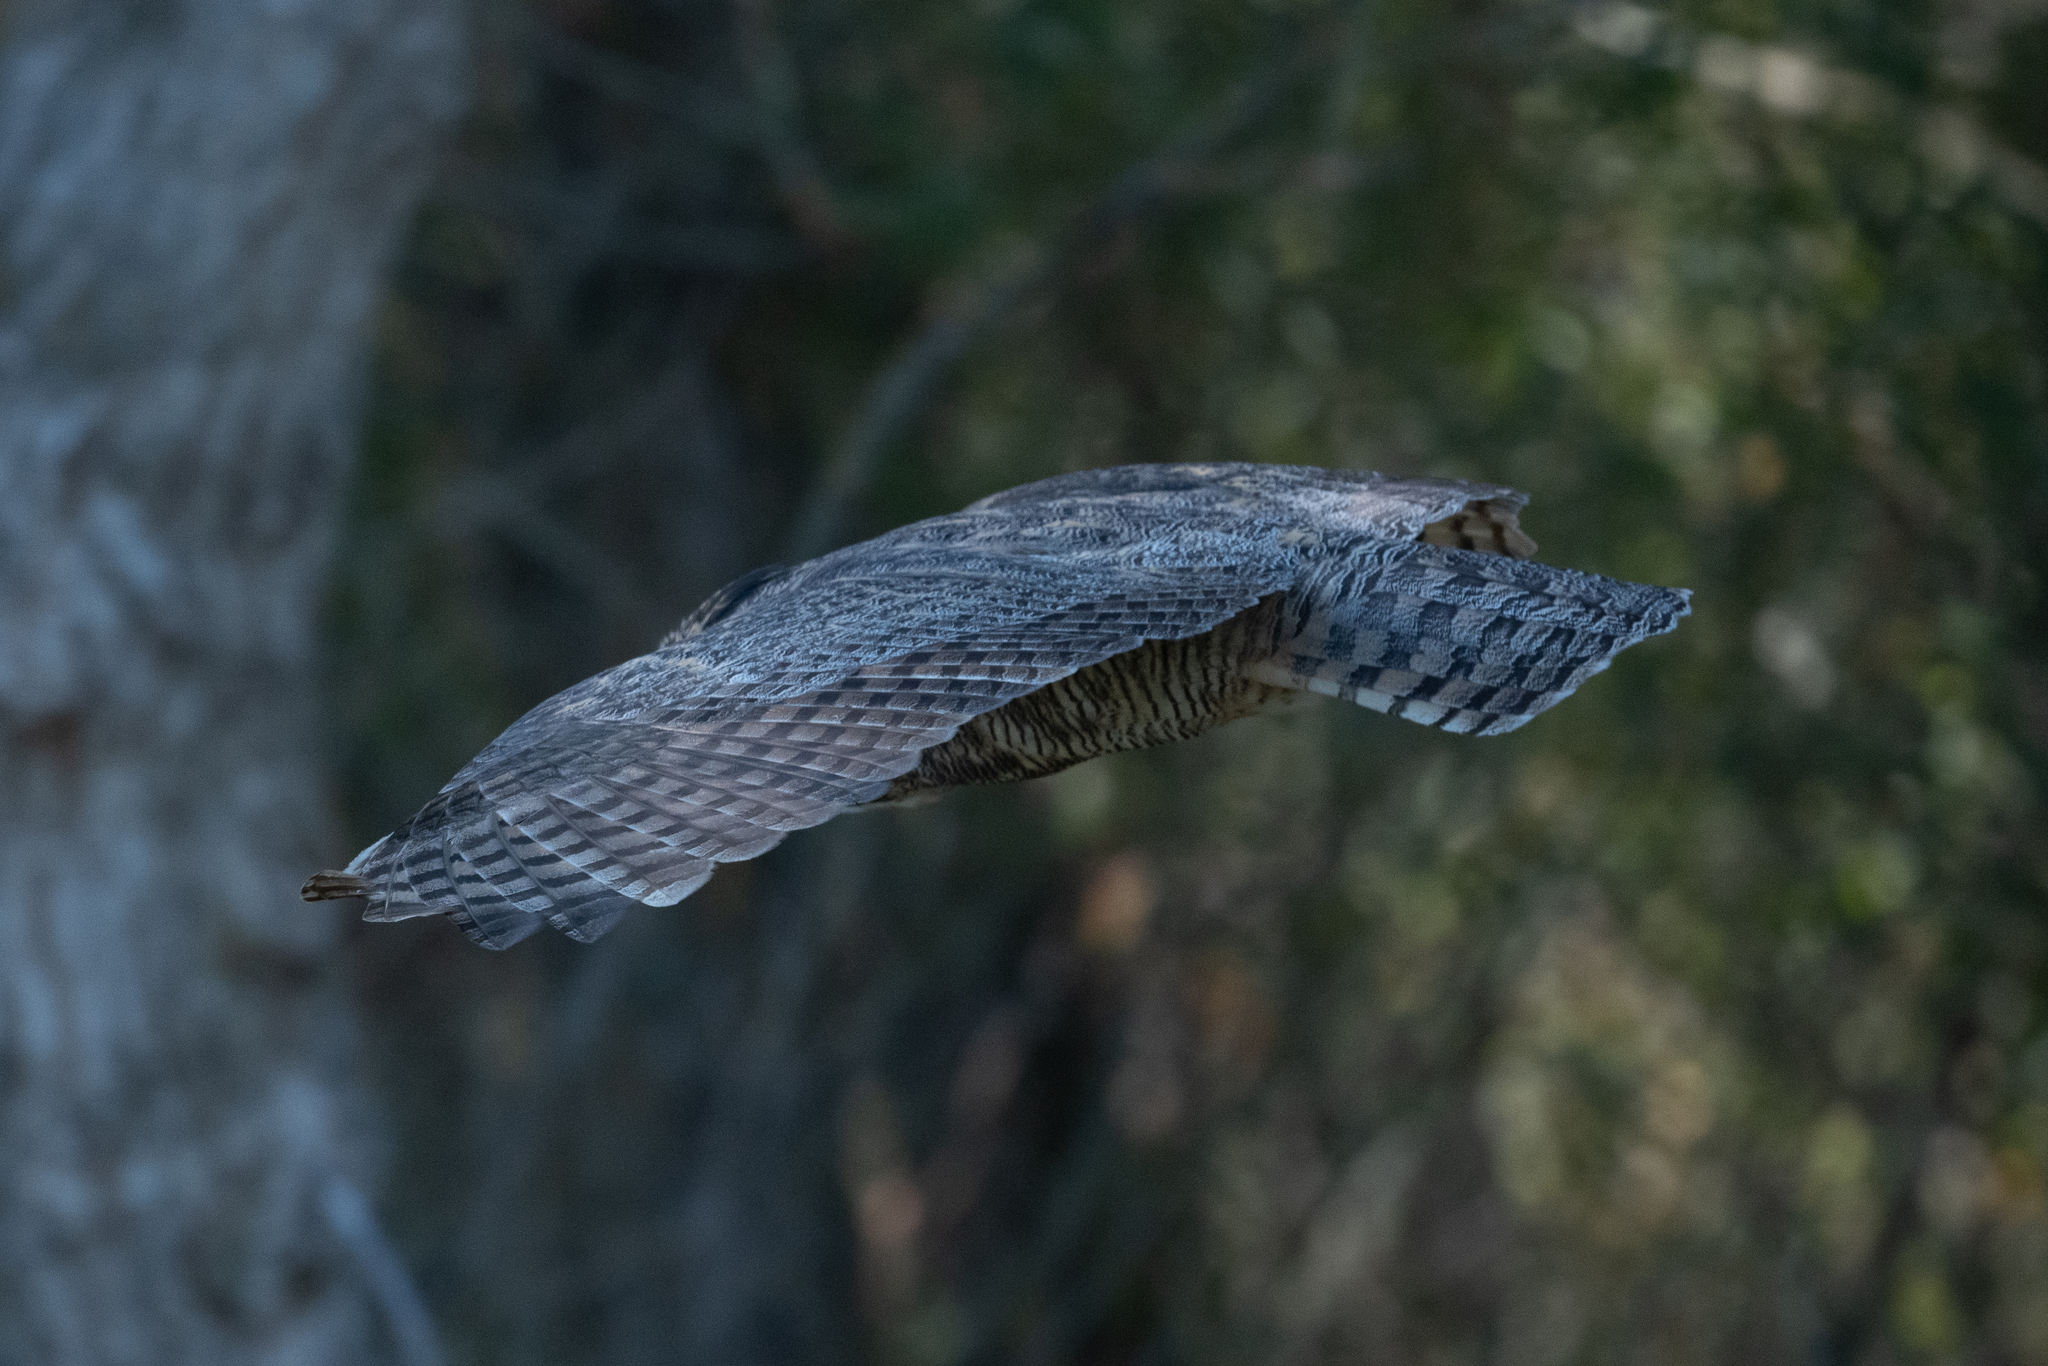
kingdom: Animalia
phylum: Chordata
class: Aves
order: Strigiformes
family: Strigidae
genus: Bubo
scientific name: Bubo virginianus
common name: Great horned owl
